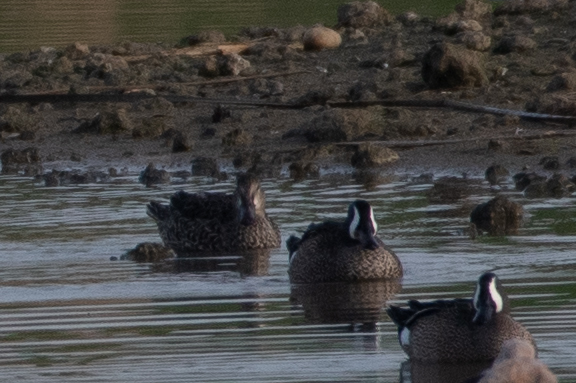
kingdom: Animalia
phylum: Chordata
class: Aves
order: Anseriformes
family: Anatidae
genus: Spatula
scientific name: Spatula discors
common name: Blue-winged teal
